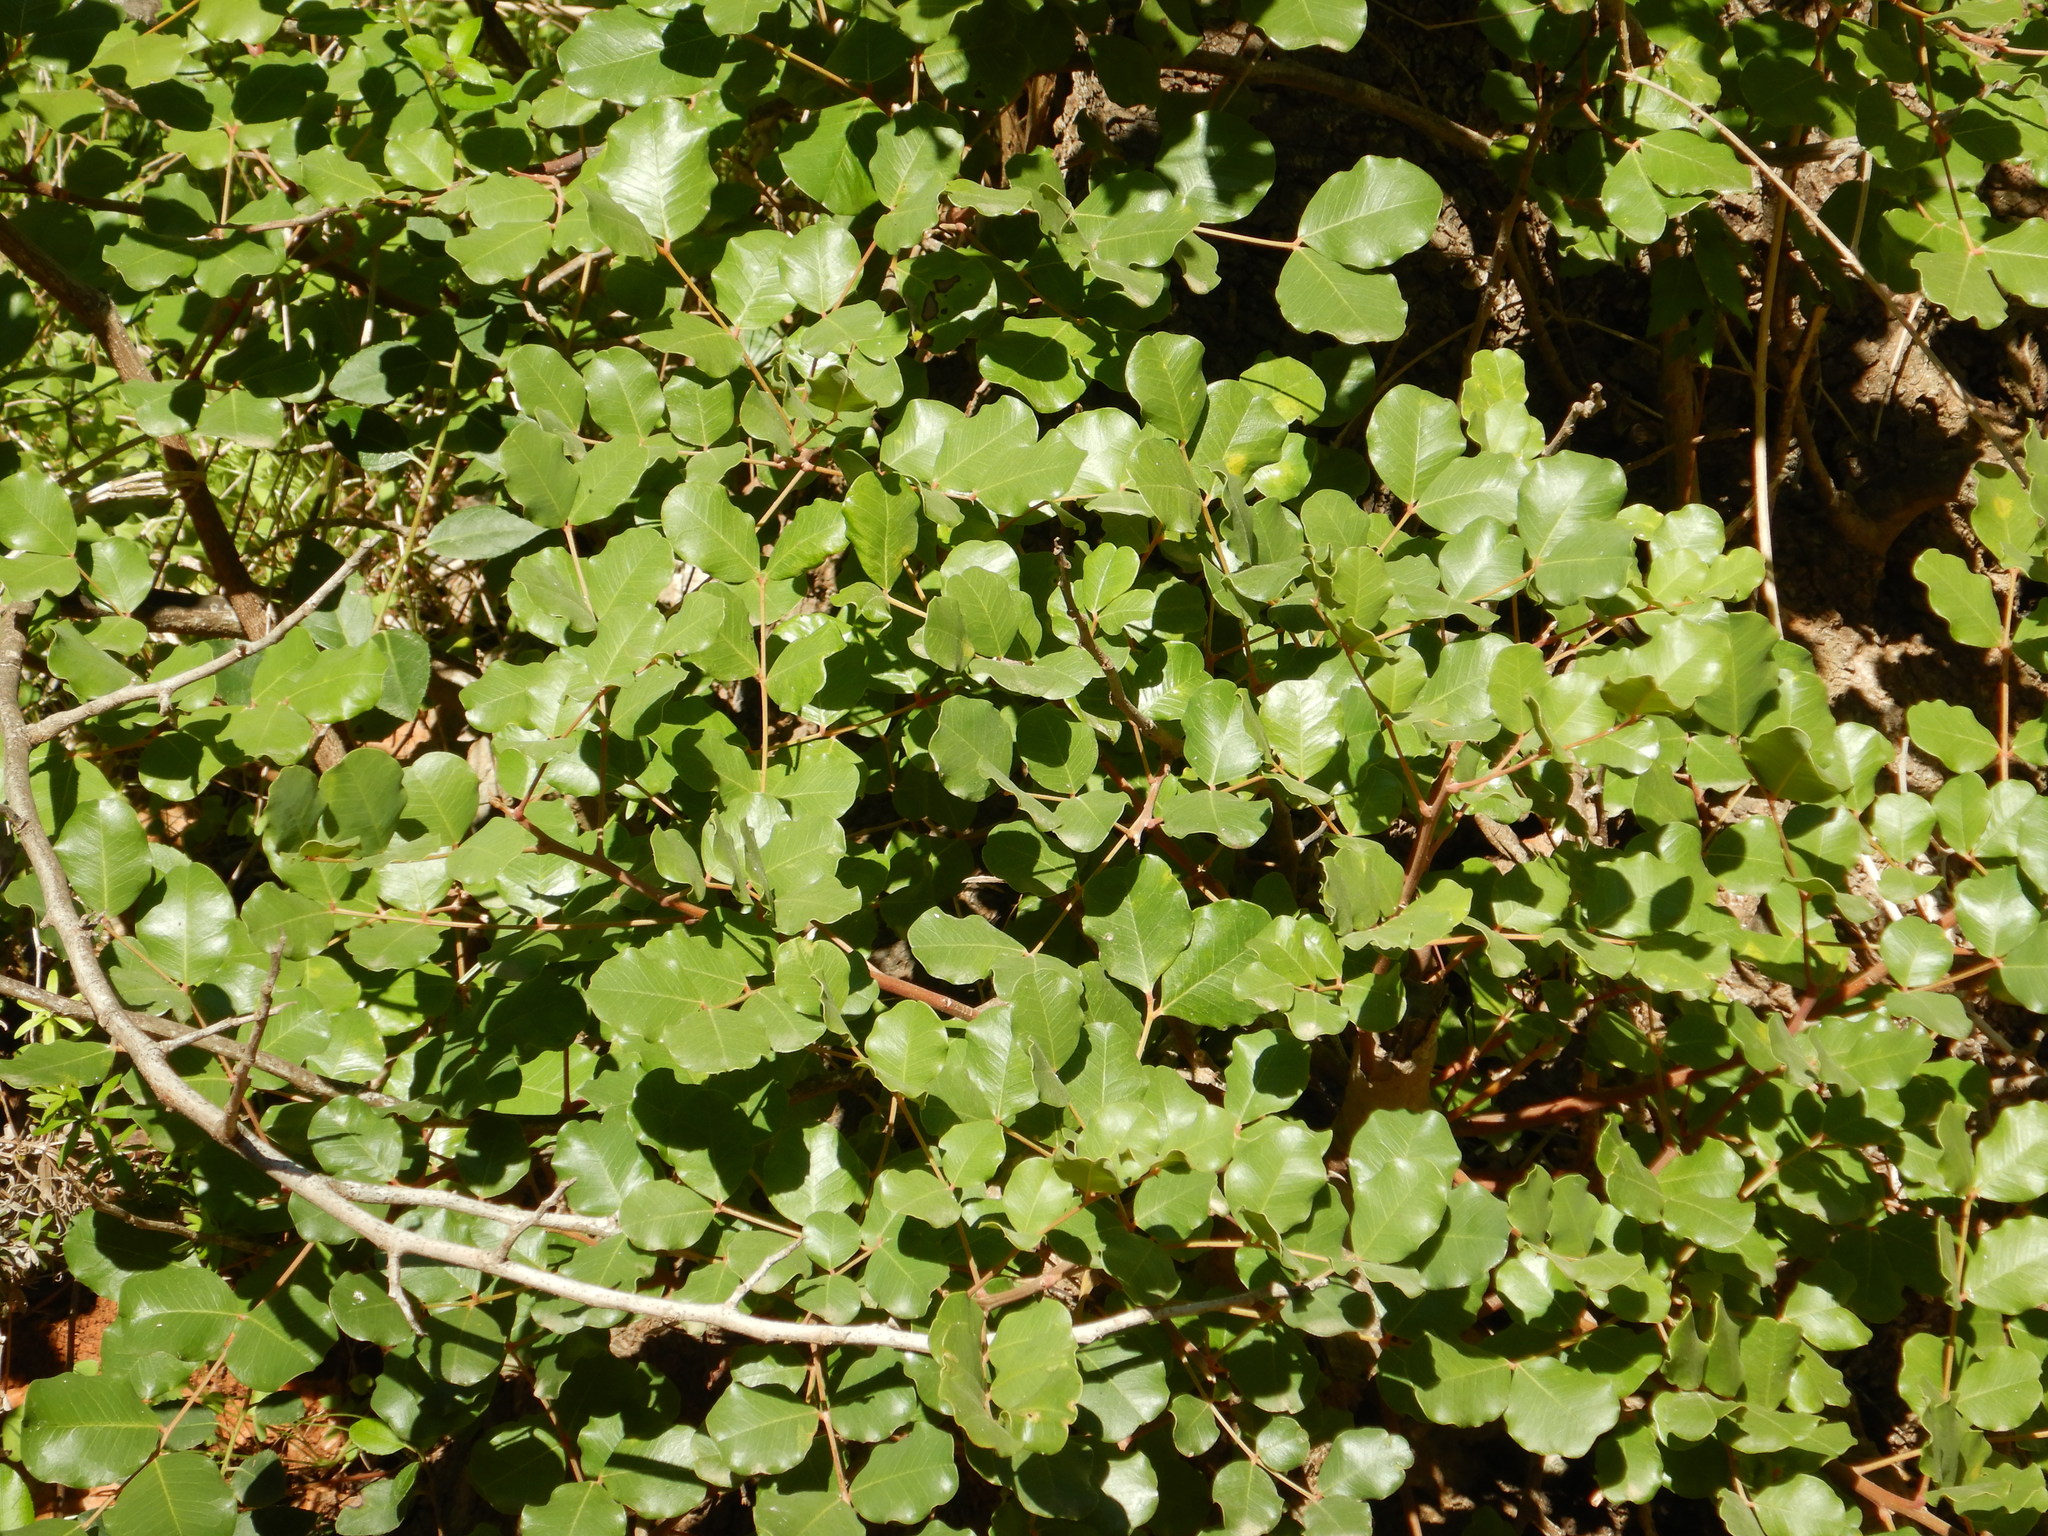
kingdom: Plantae
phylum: Tracheophyta
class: Magnoliopsida
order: Fabales
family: Fabaceae
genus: Ceratonia
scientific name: Ceratonia siliqua
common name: Carob
